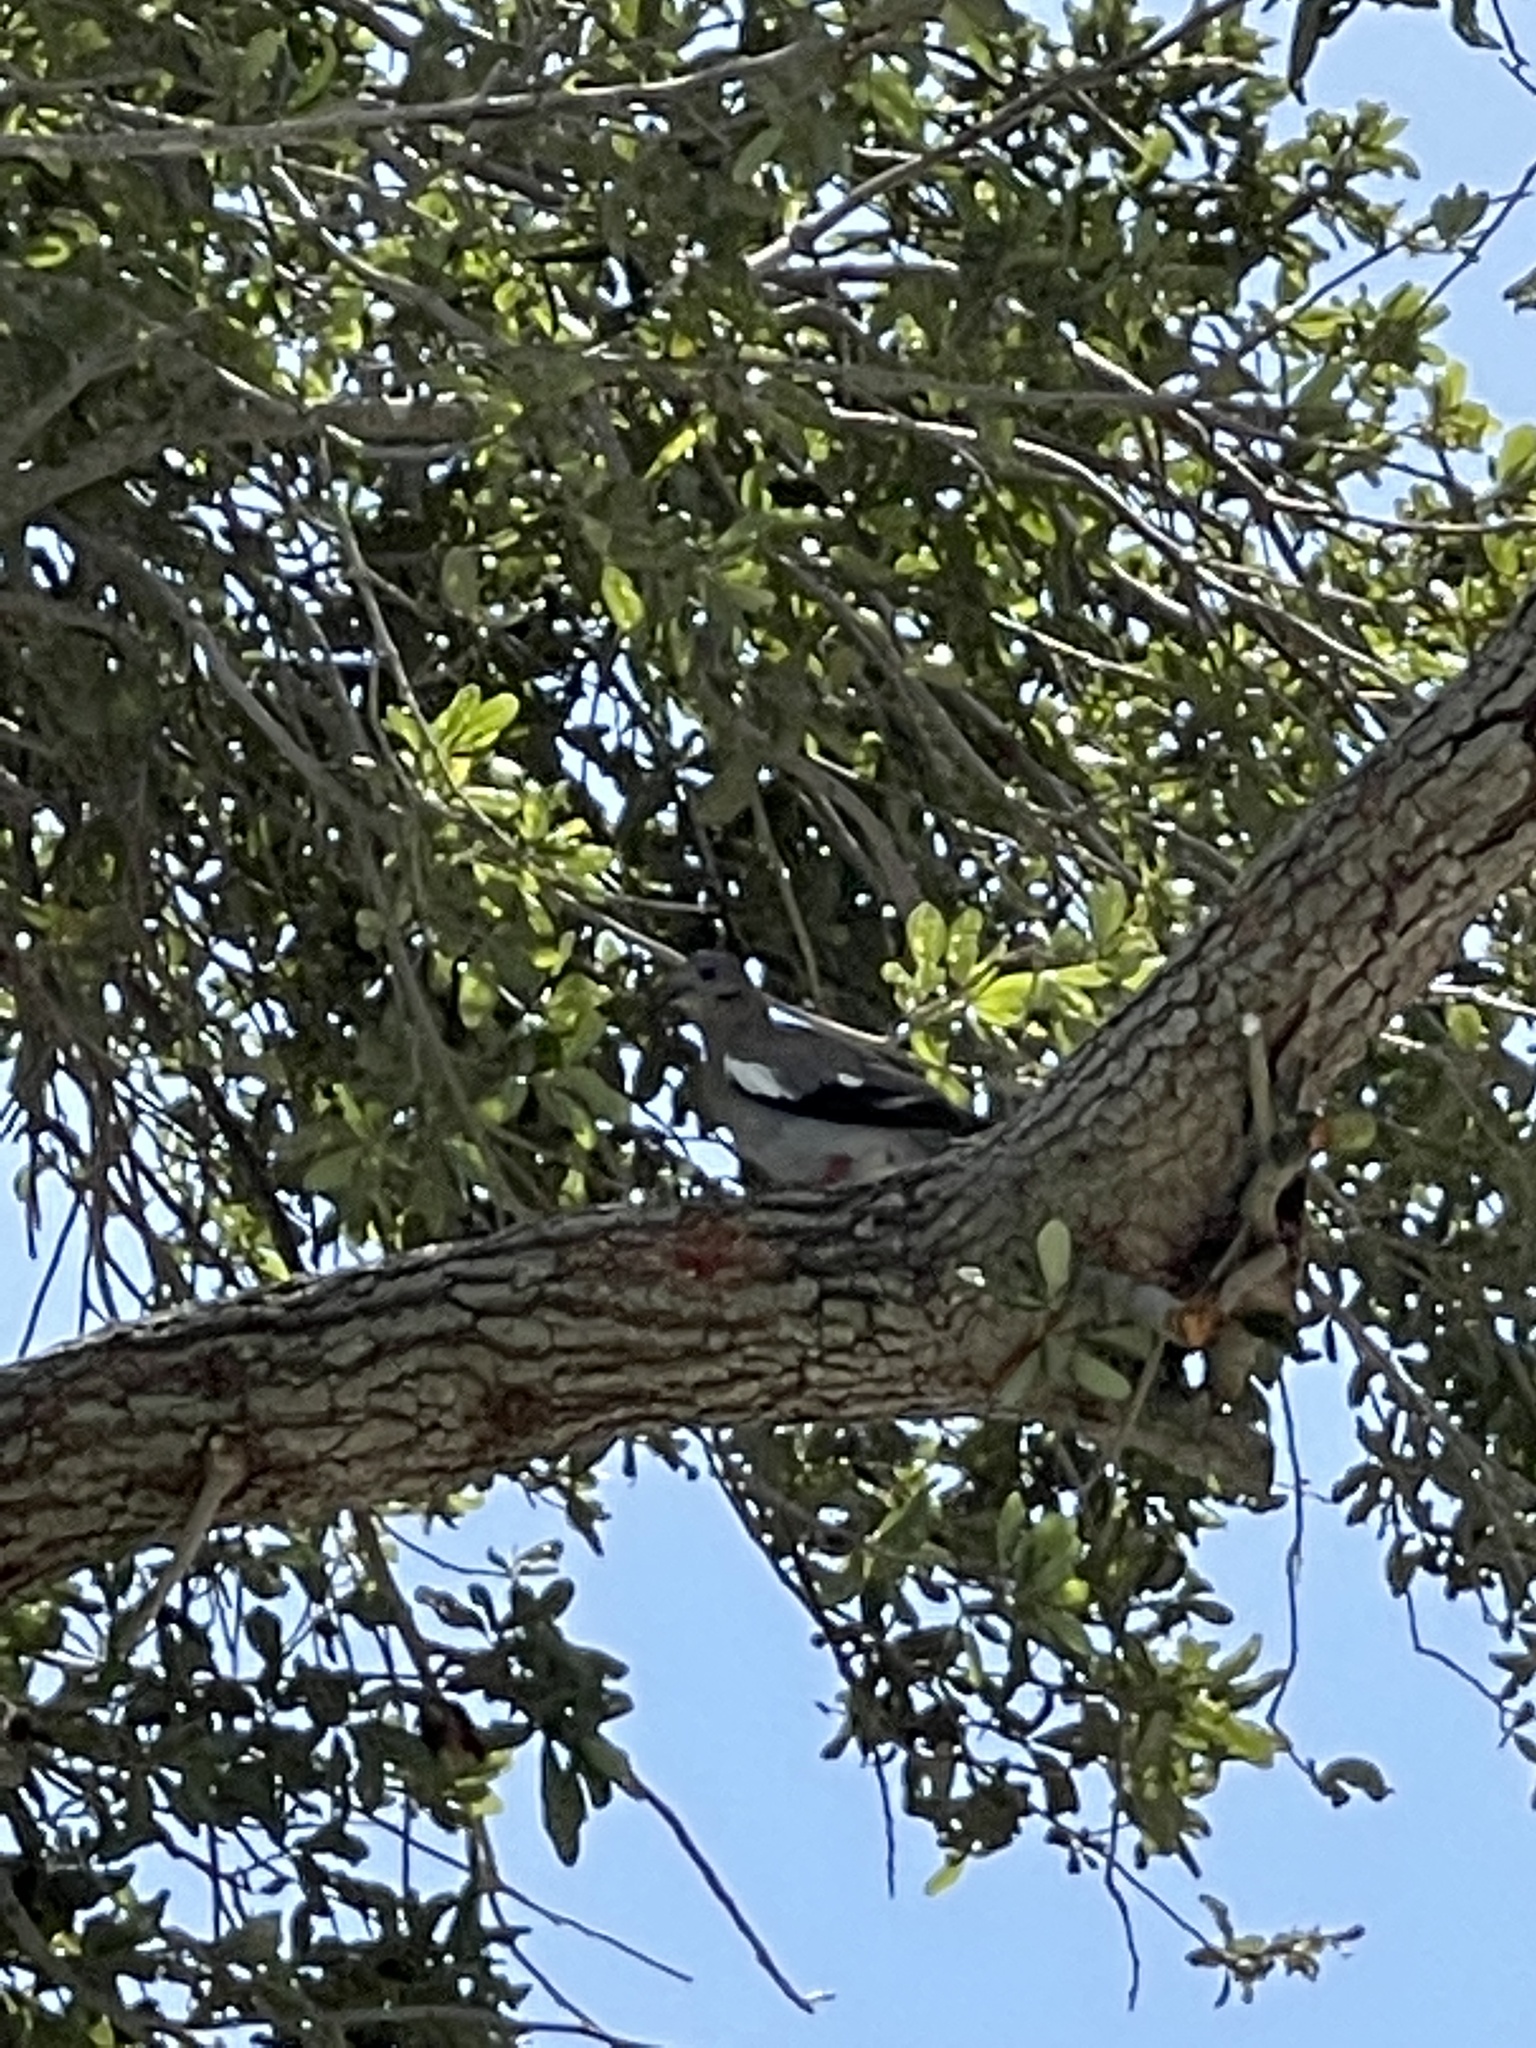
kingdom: Animalia
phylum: Chordata
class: Aves
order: Columbiformes
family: Columbidae
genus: Zenaida
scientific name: Zenaida asiatica
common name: White-winged dove
